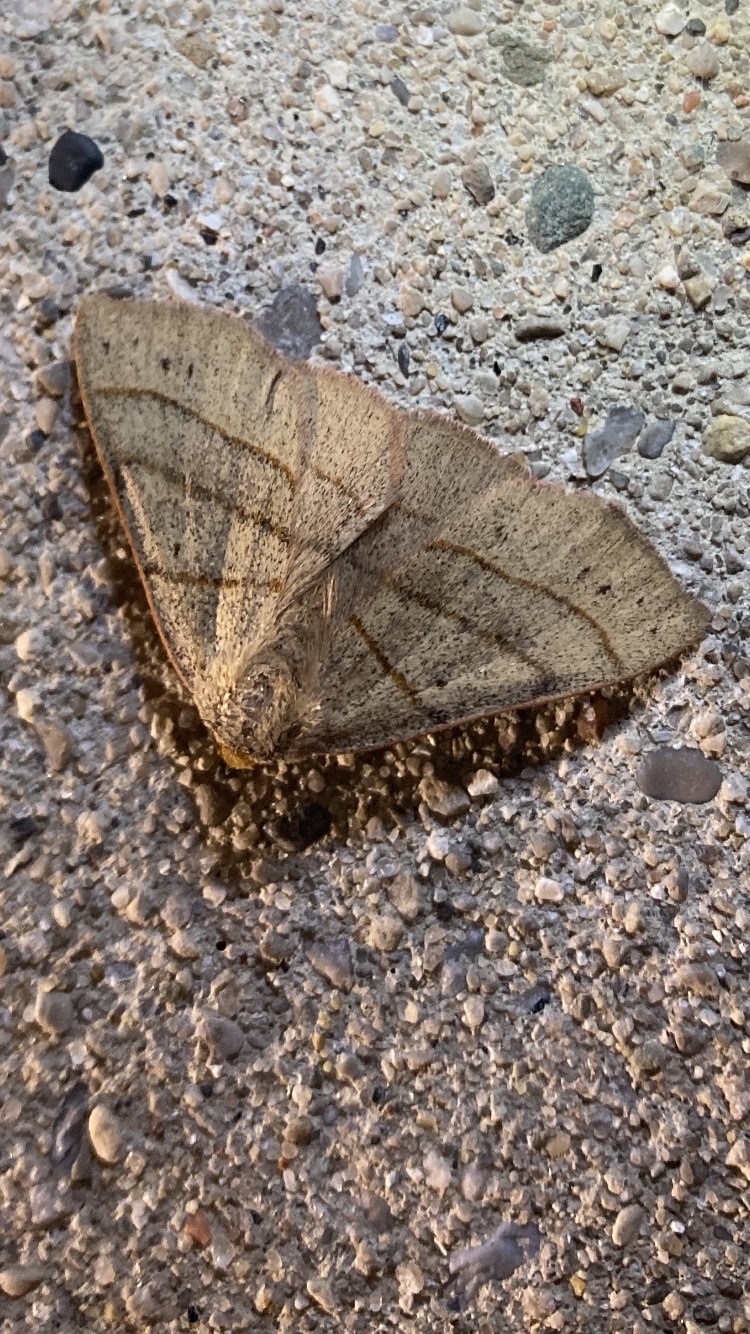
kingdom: Animalia
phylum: Arthropoda
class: Insecta
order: Lepidoptera
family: Erebidae
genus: Panopoda
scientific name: Panopoda rufimargo
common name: Red-lined panopoda moth
